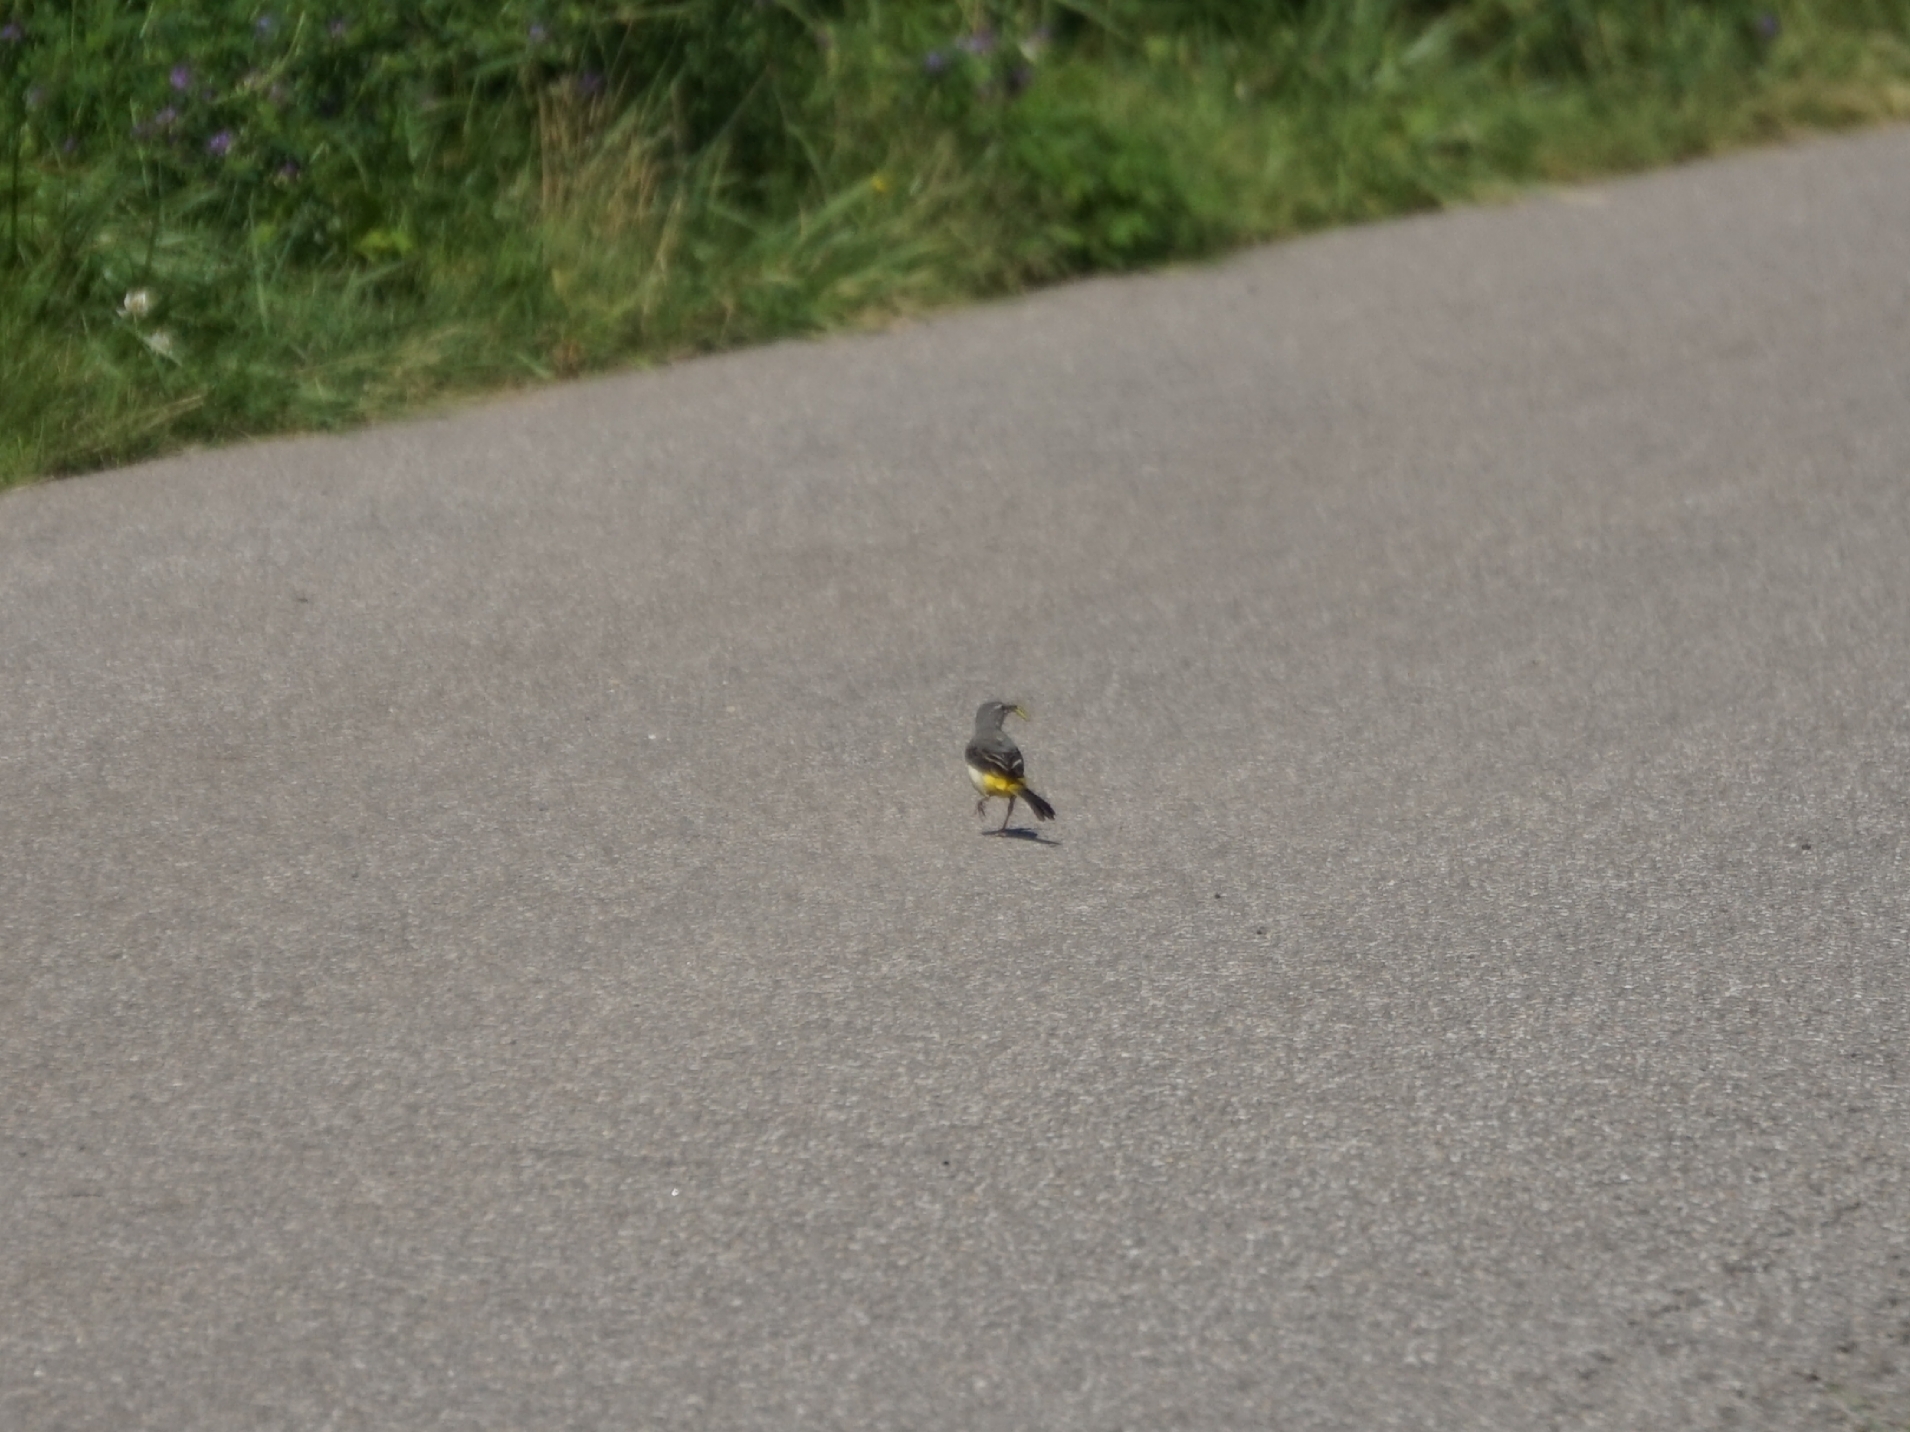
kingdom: Animalia
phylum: Chordata
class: Aves
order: Passeriformes
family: Motacillidae
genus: Motacilla
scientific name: Motacilla cinerea
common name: Grey wagtail
